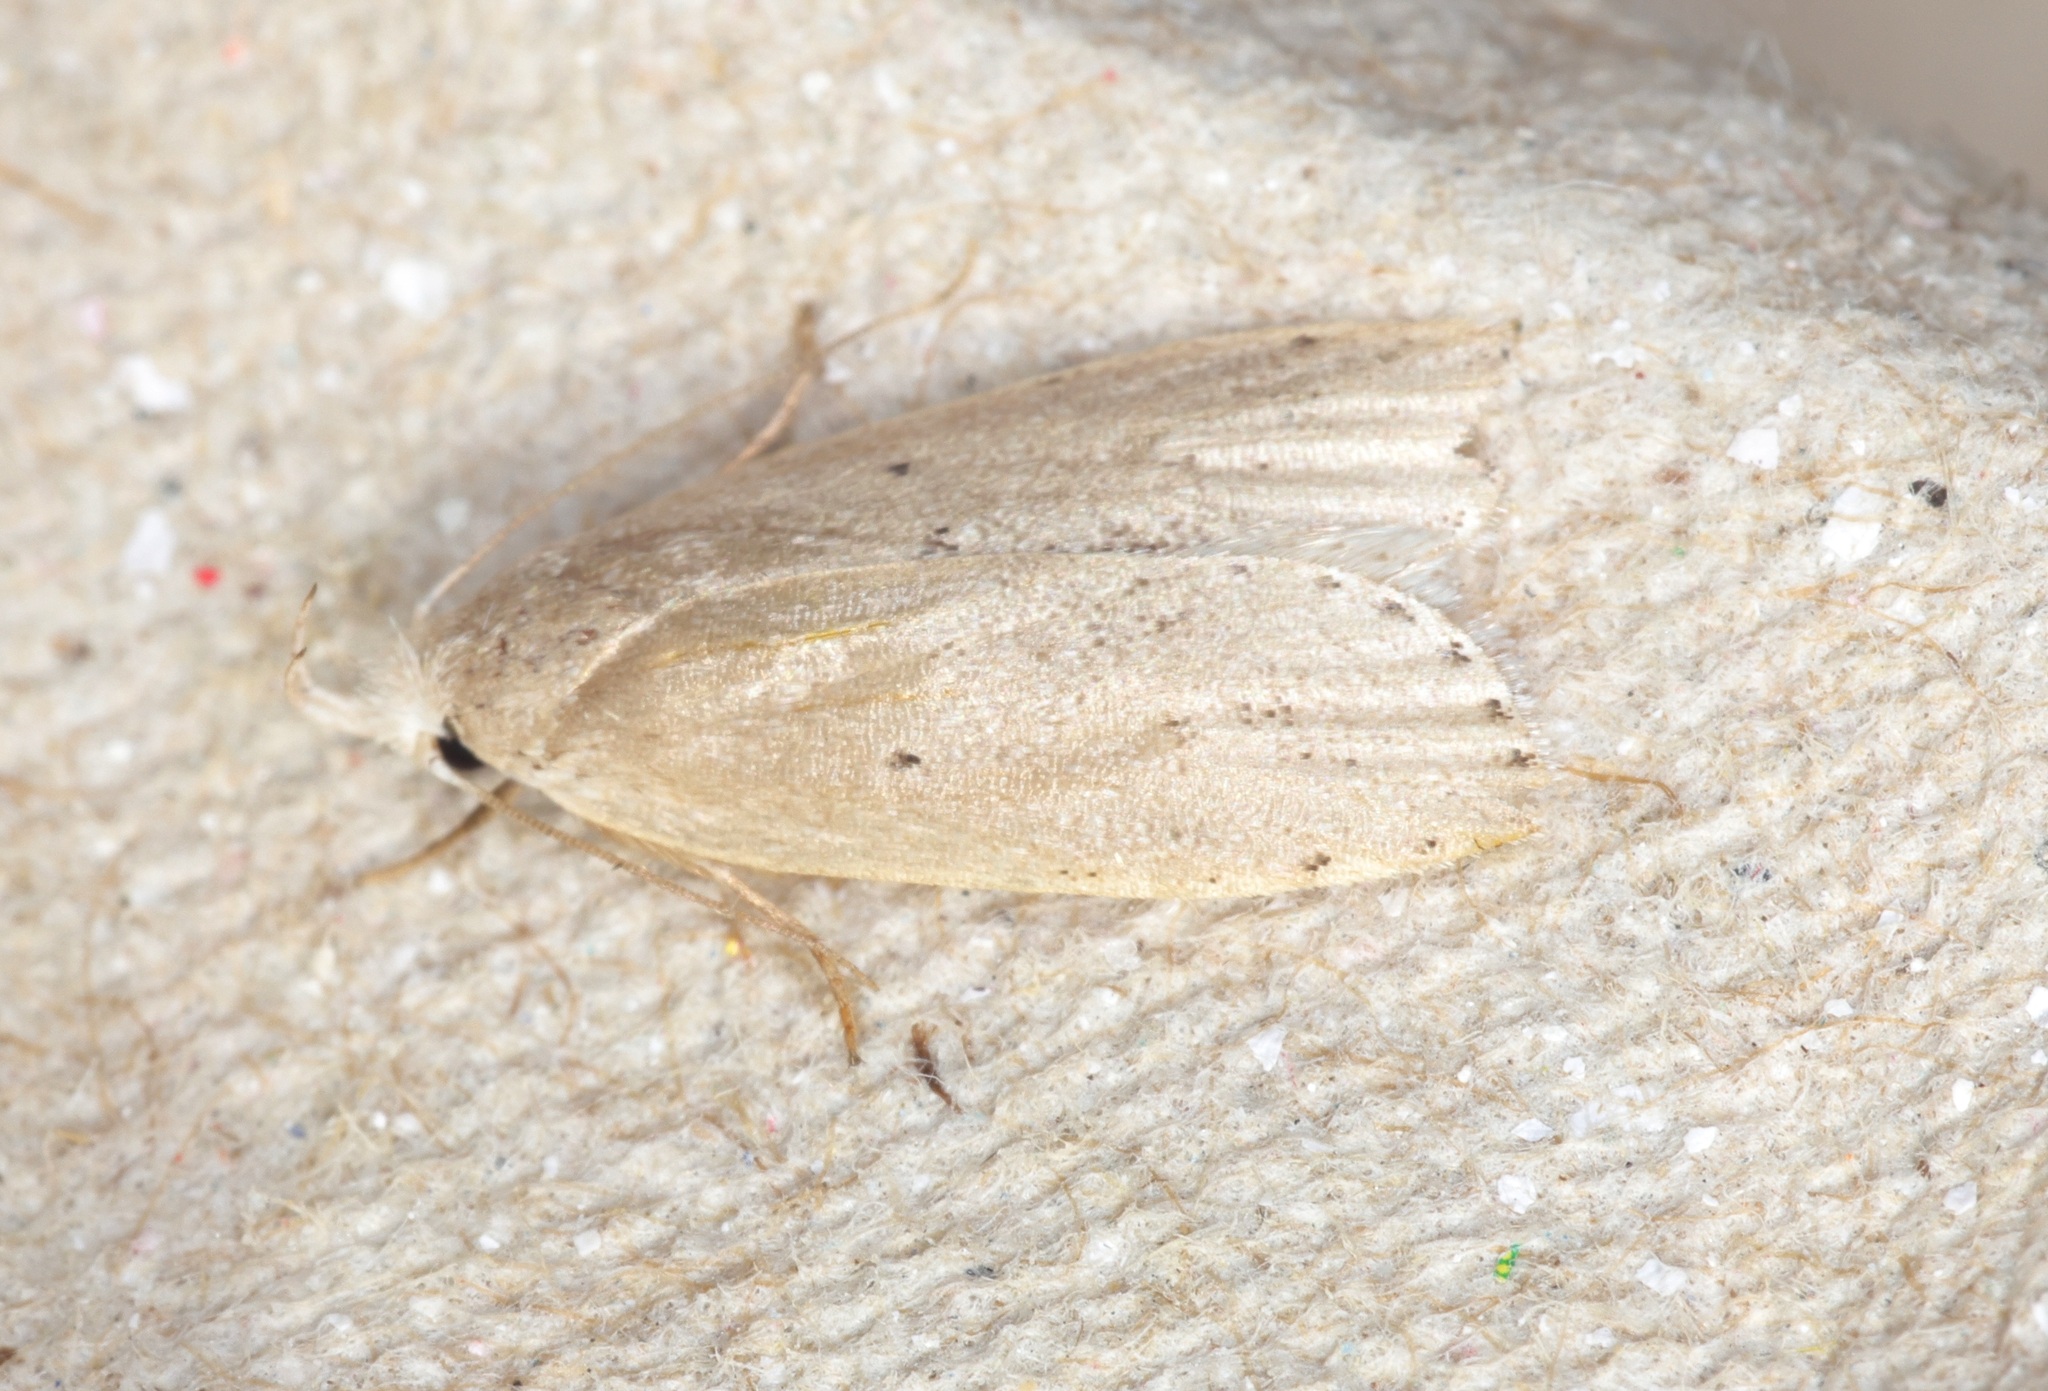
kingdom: Animalia
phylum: Arthropoda
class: Insecta
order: Lepidoptera
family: Peleopodidae
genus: Odites
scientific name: Odites
